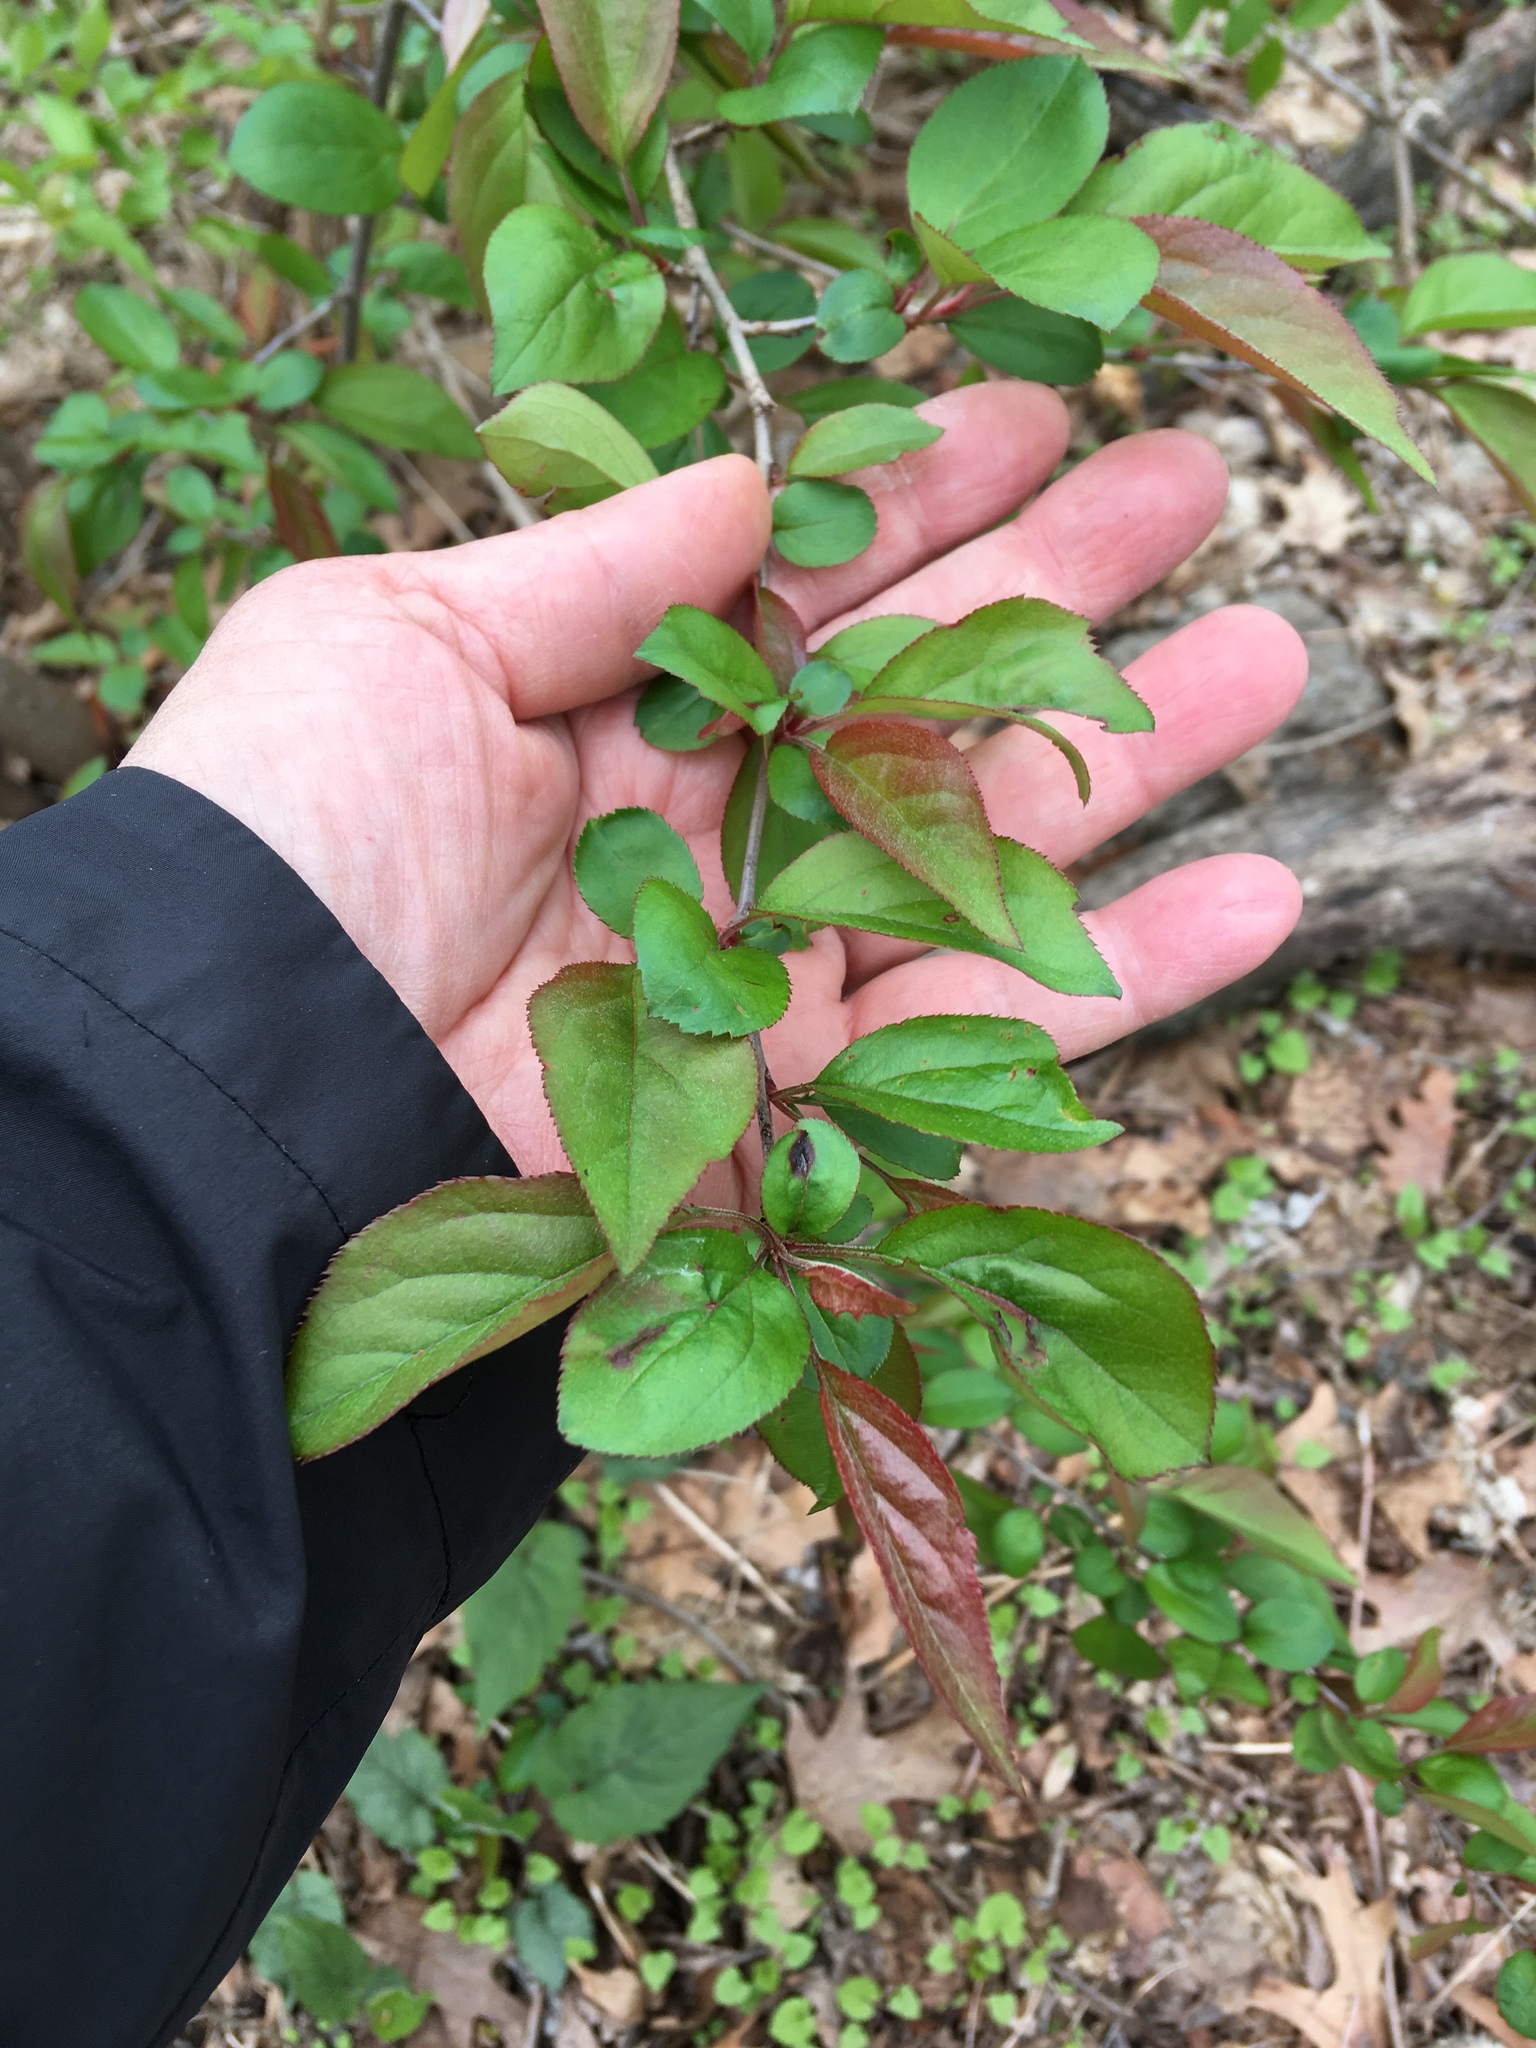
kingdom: Plantae
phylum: Tracheophyta
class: Magnoliopsida
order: Rosales
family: Rosaceae
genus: Malus
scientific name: Malus hupehensis
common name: Chinese crab apple
